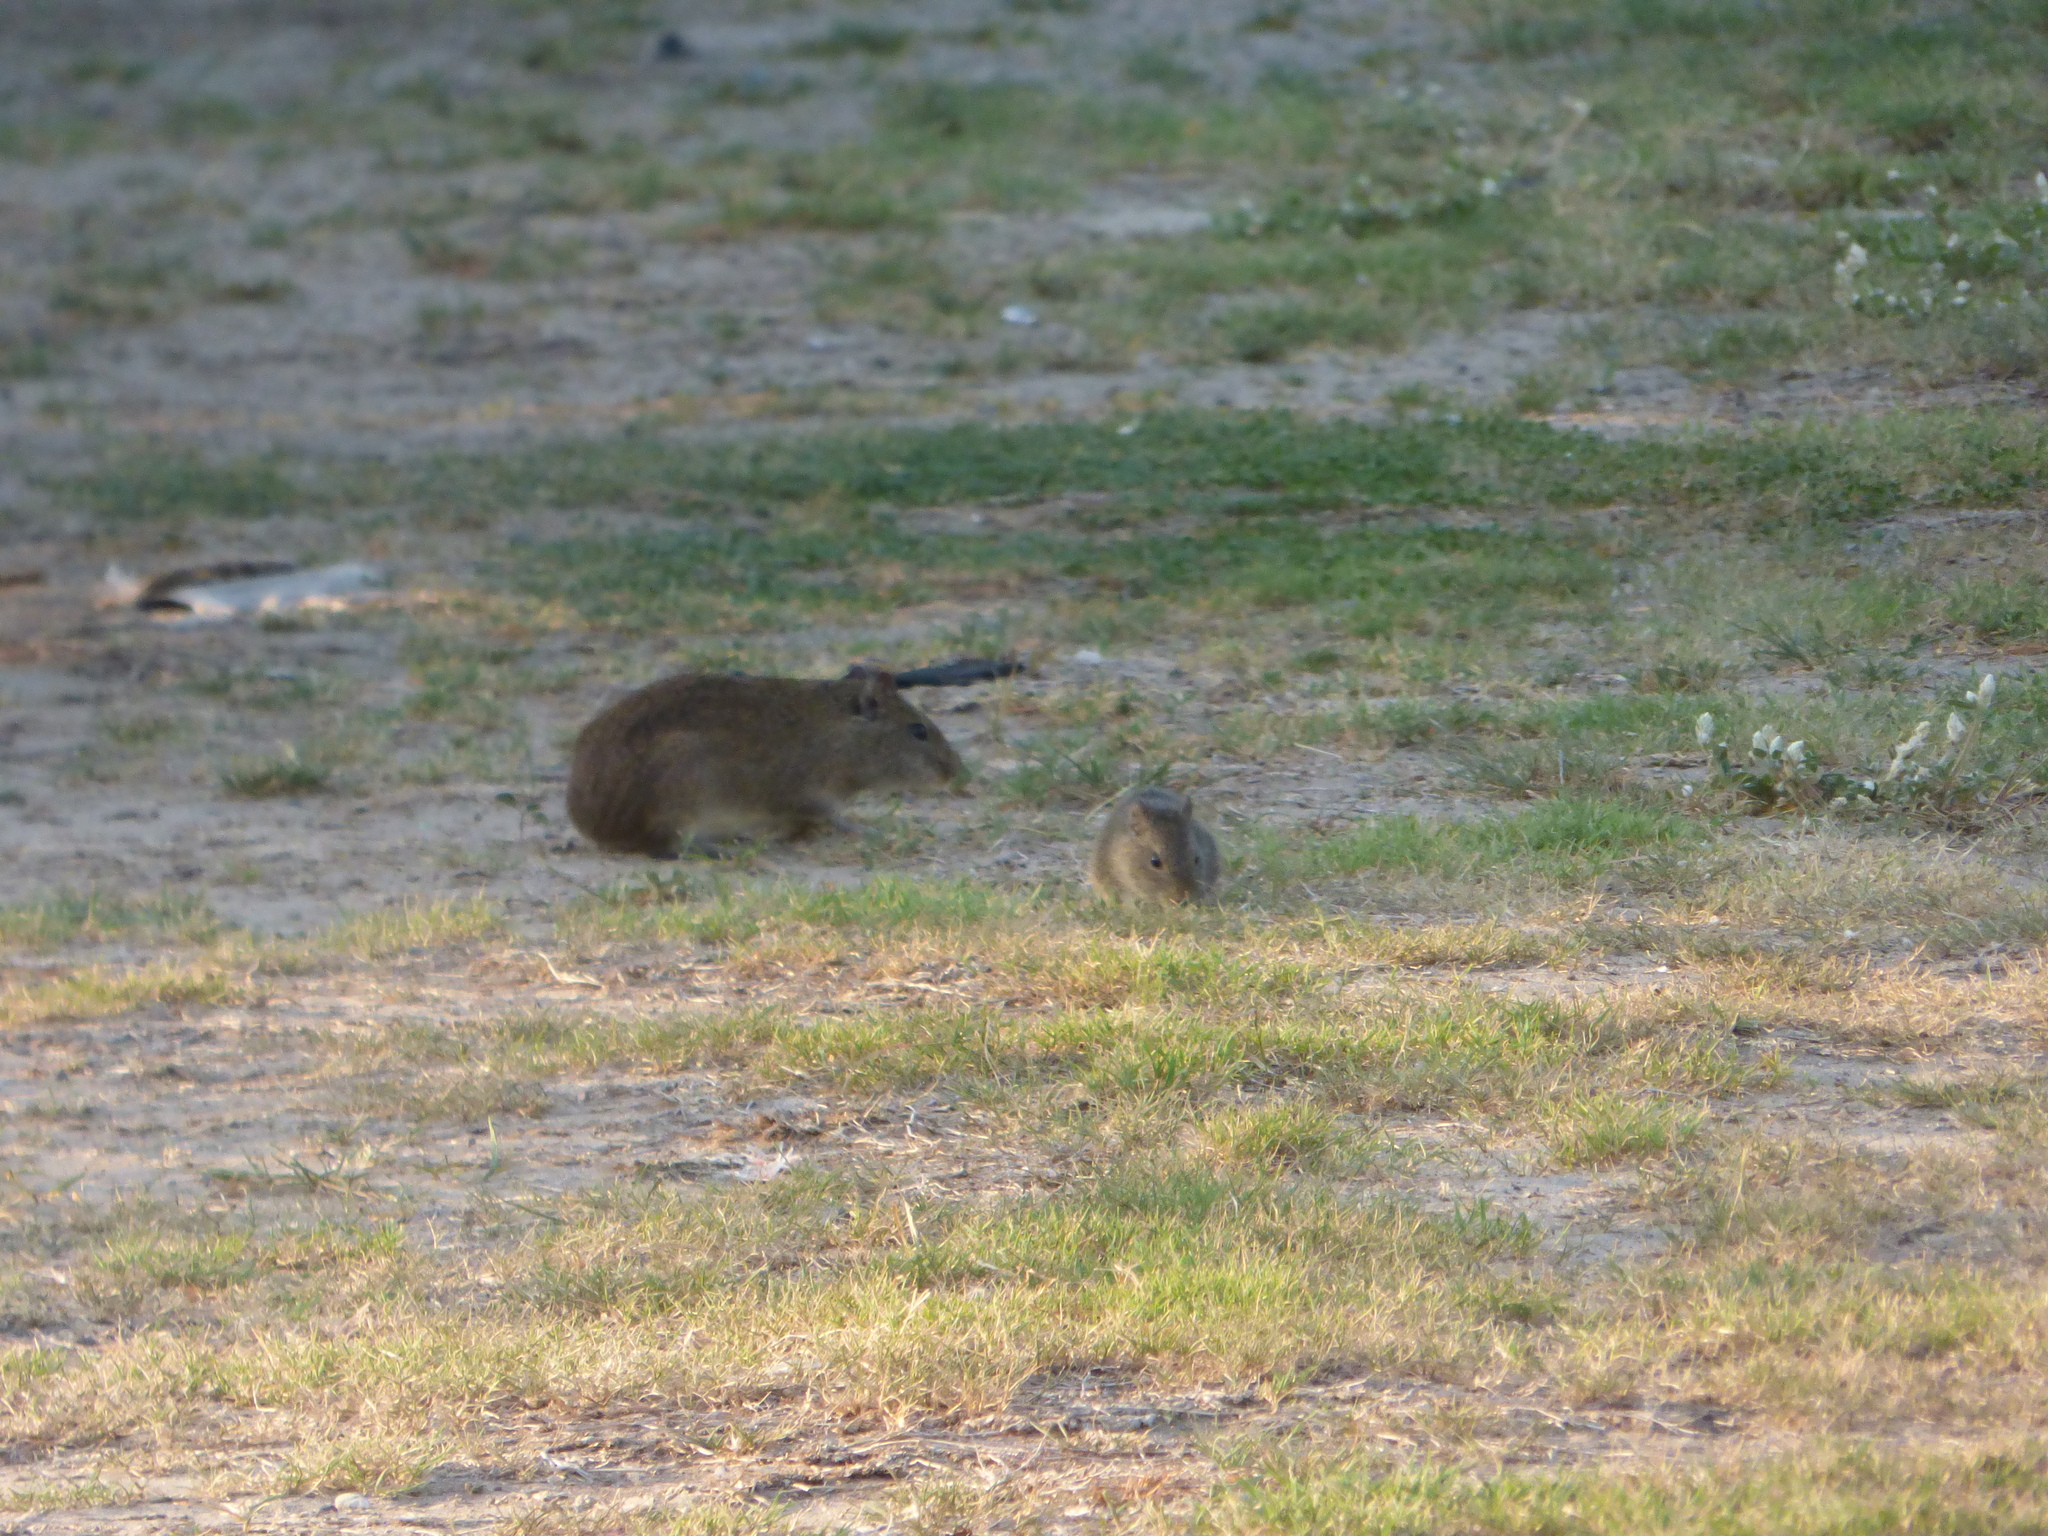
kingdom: Animalia
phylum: Chordata
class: Mammalia
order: Rodentia
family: Caviidae
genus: Cavia
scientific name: Cavia aperea
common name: Brazilian guinea pig
